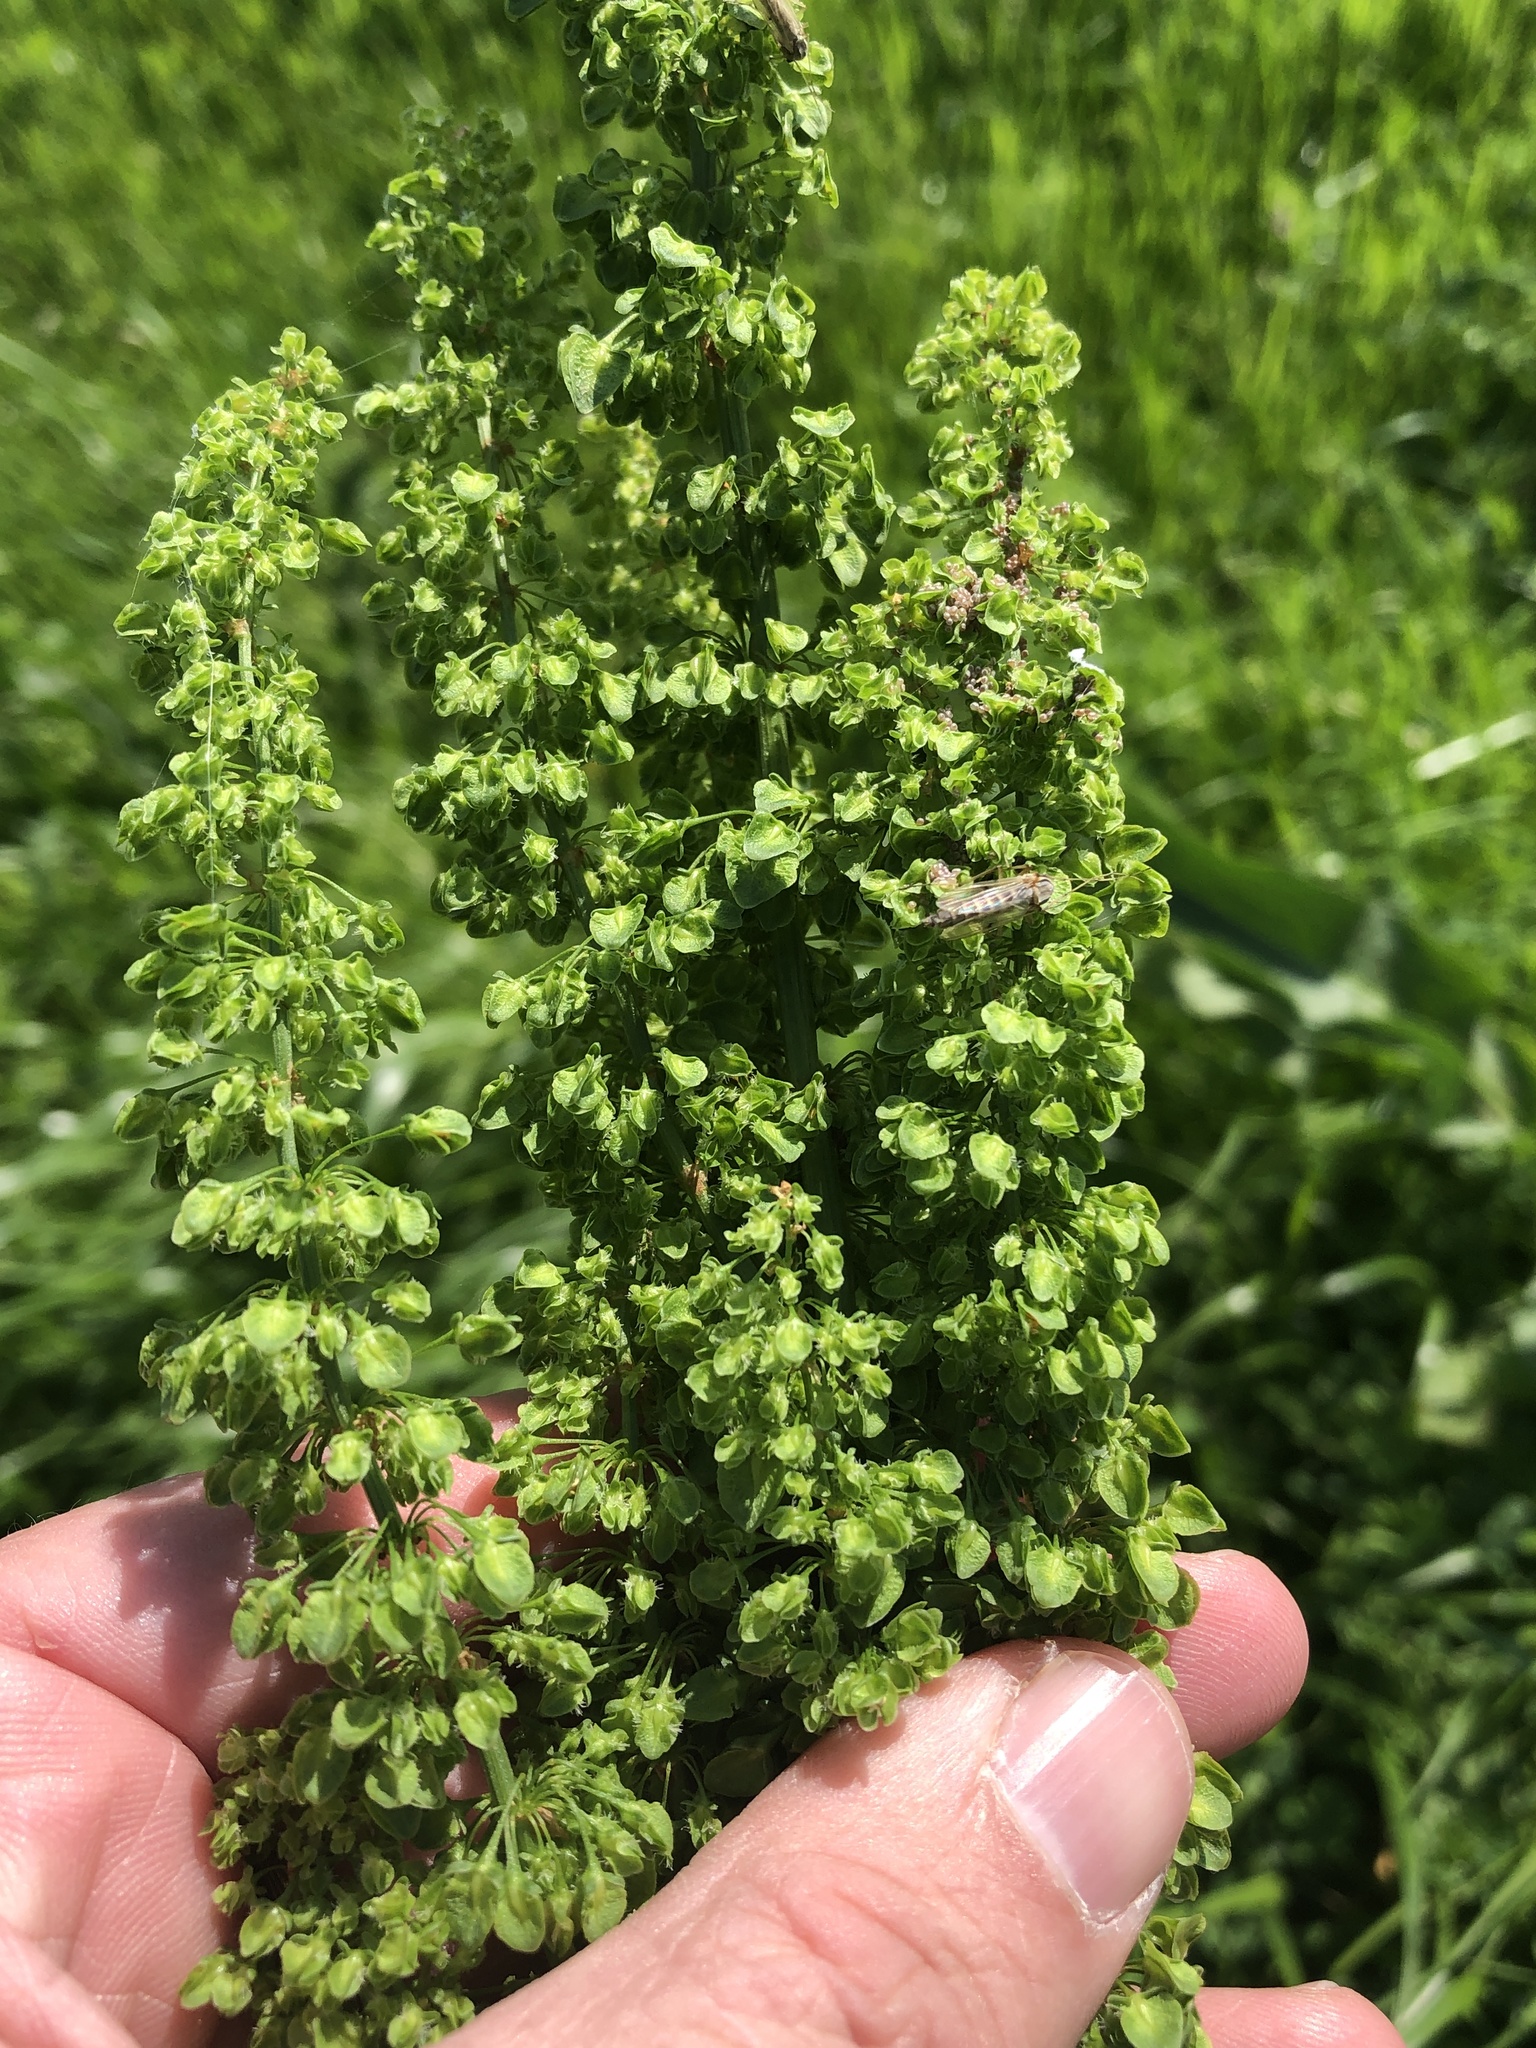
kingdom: Plantae
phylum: Tracheophyta
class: Magnoliopsida
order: Caryophyllales
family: Polygonaceae
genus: Rumex
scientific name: Rumex crispus
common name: Curled dock
